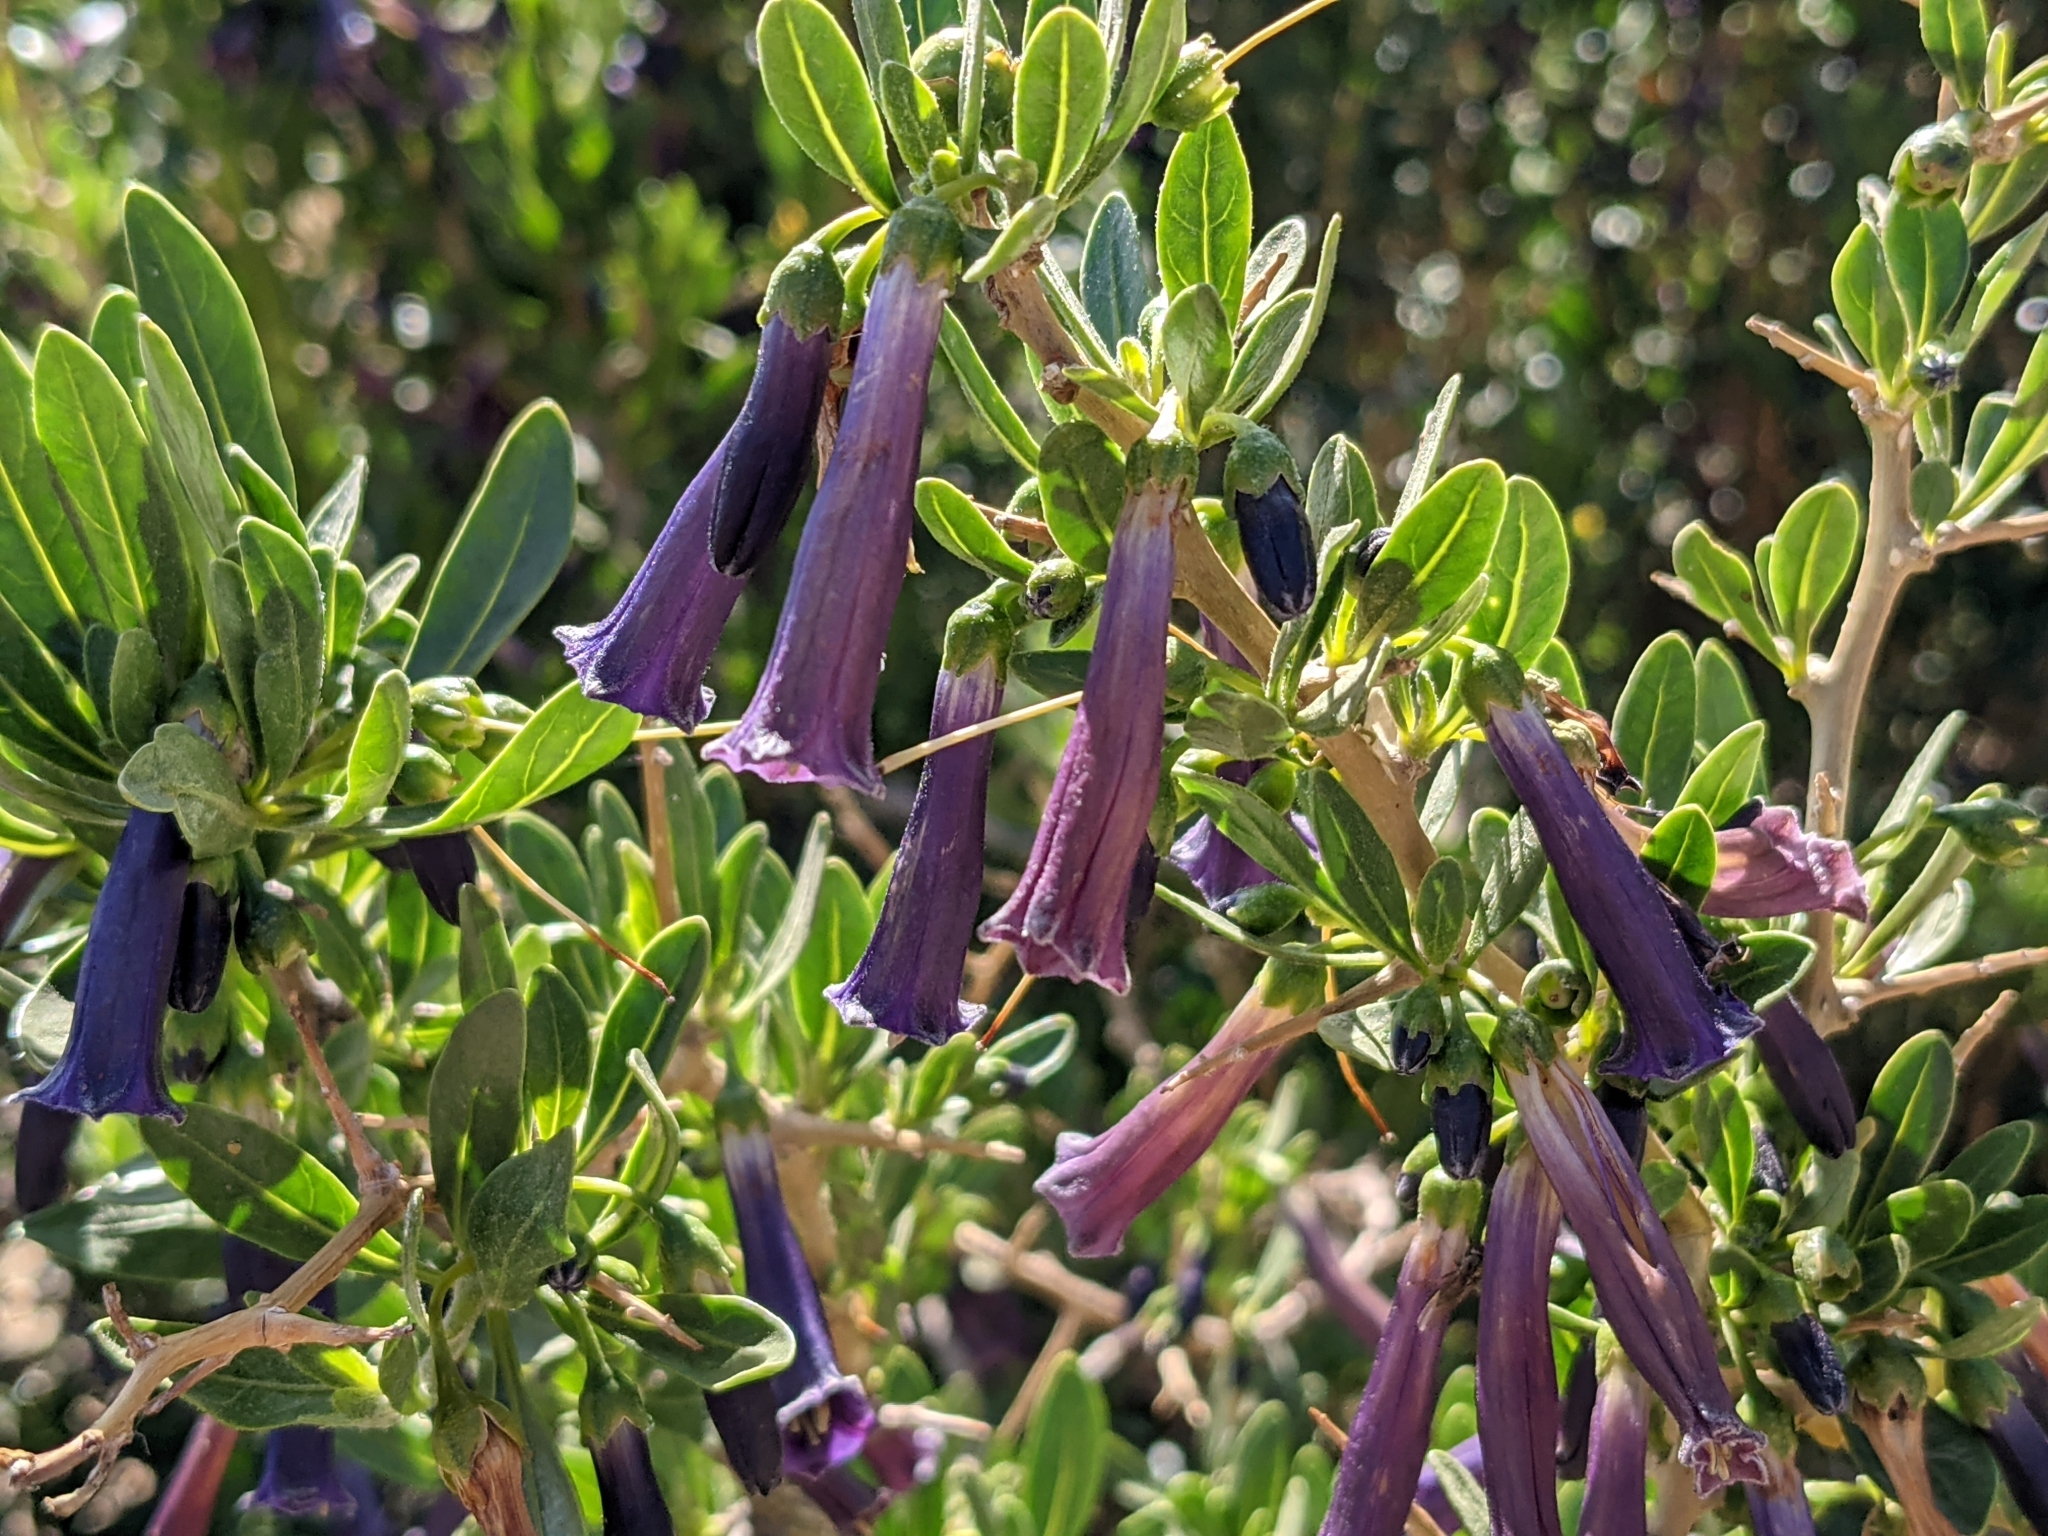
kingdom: Plantae
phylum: Tracheophyta
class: Magnoliopsida
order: Solanales
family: Solanaceae
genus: Dunalia
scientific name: Dunalia spinosa
